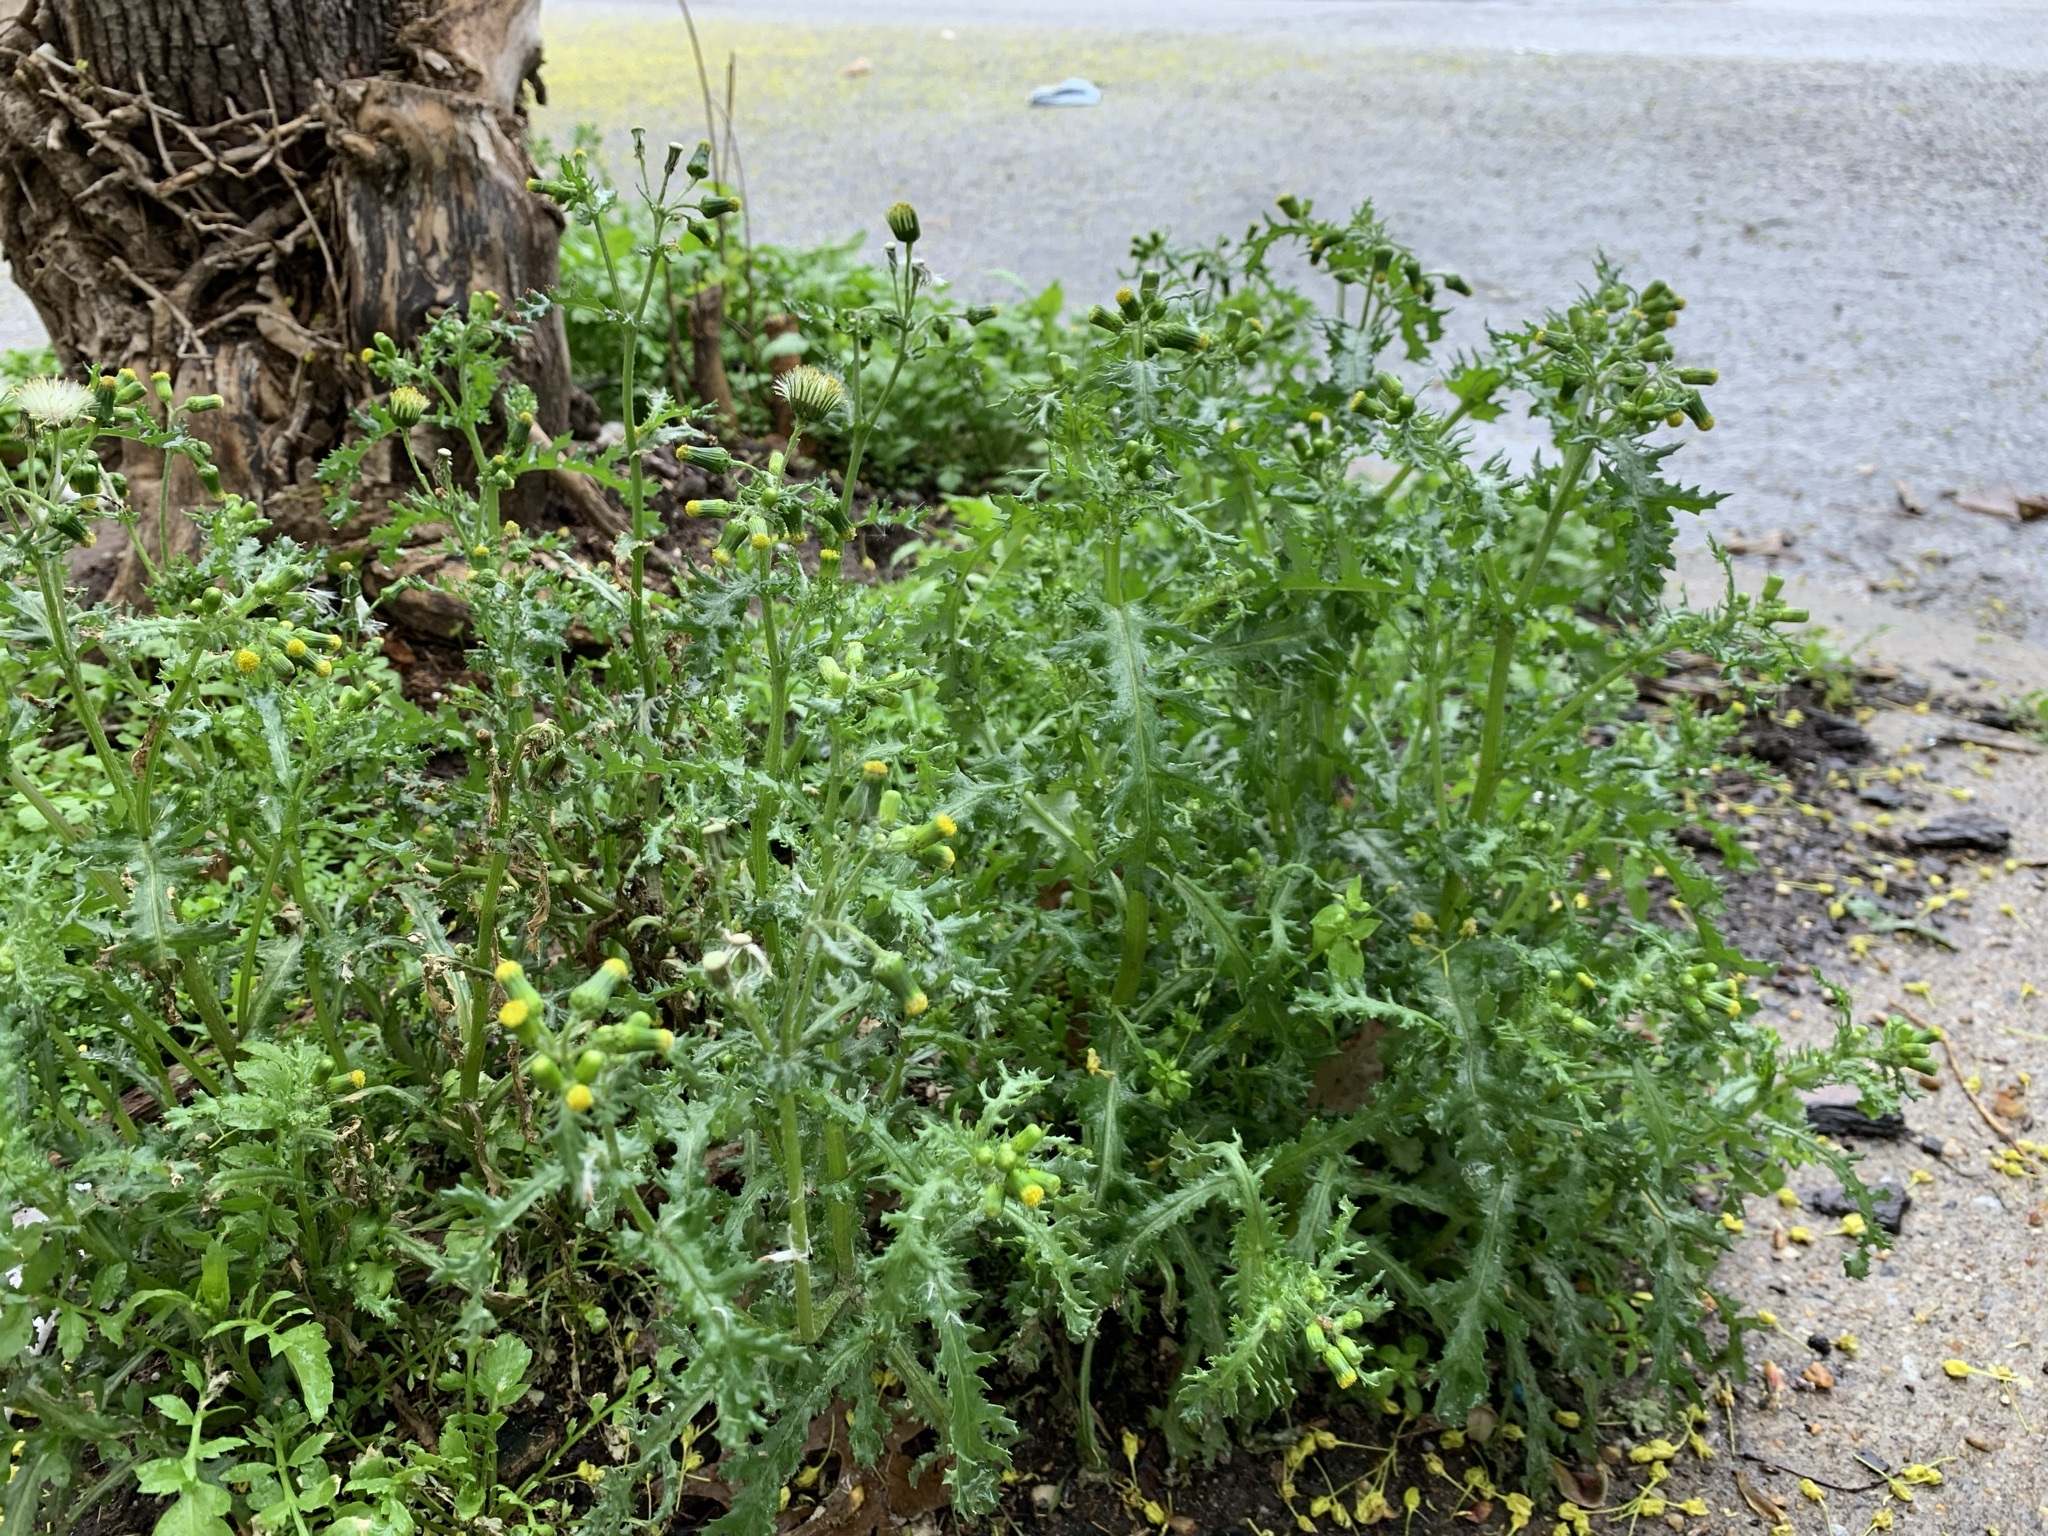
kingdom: Plantae
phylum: Tracheophyta
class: Magnoliopsida
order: Asterales
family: Asteraceae
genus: Senecio
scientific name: Senecio vulgaris
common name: Old-man-in-the-spring
